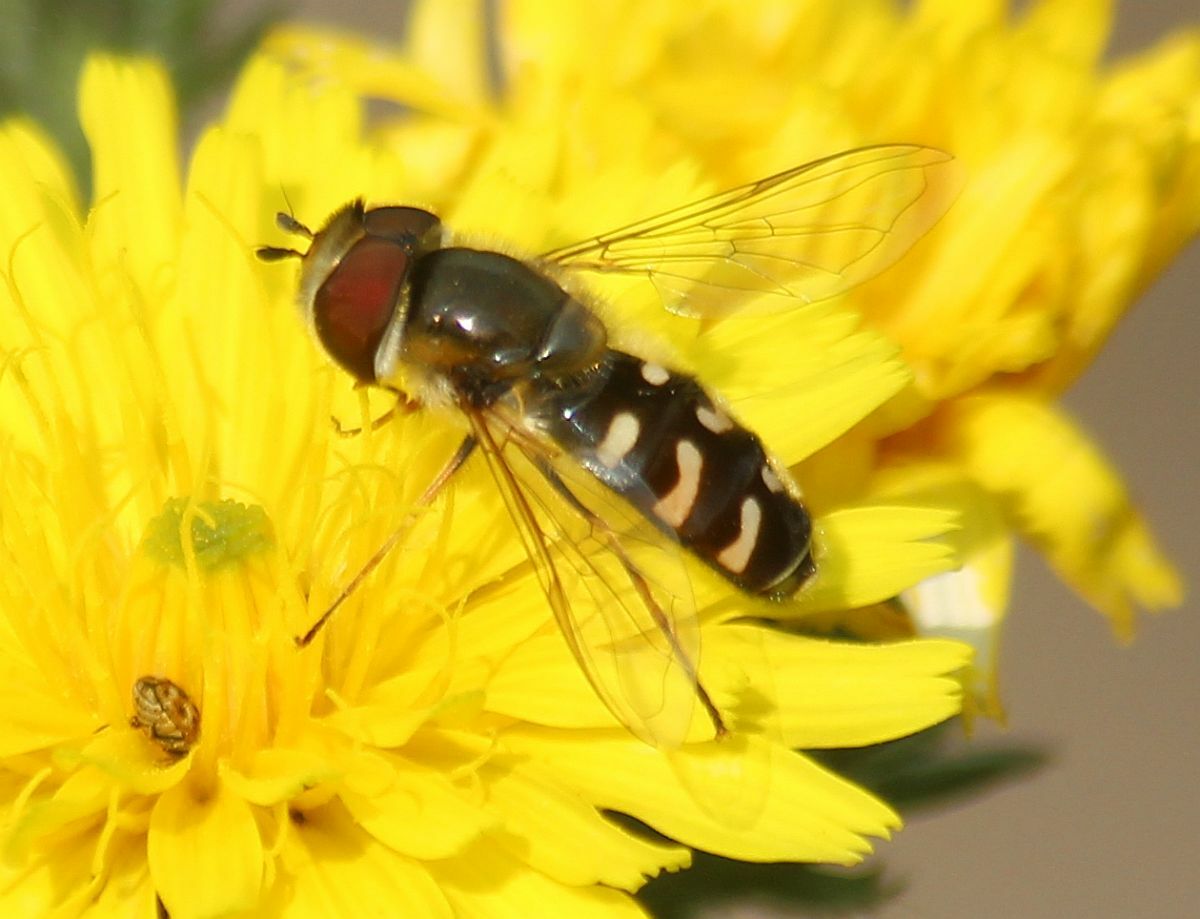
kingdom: Animalia
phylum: Arthropoda
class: Insecta
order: Diptera
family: Syrphidae
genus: Scaeva
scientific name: Scaeva pyrastri
